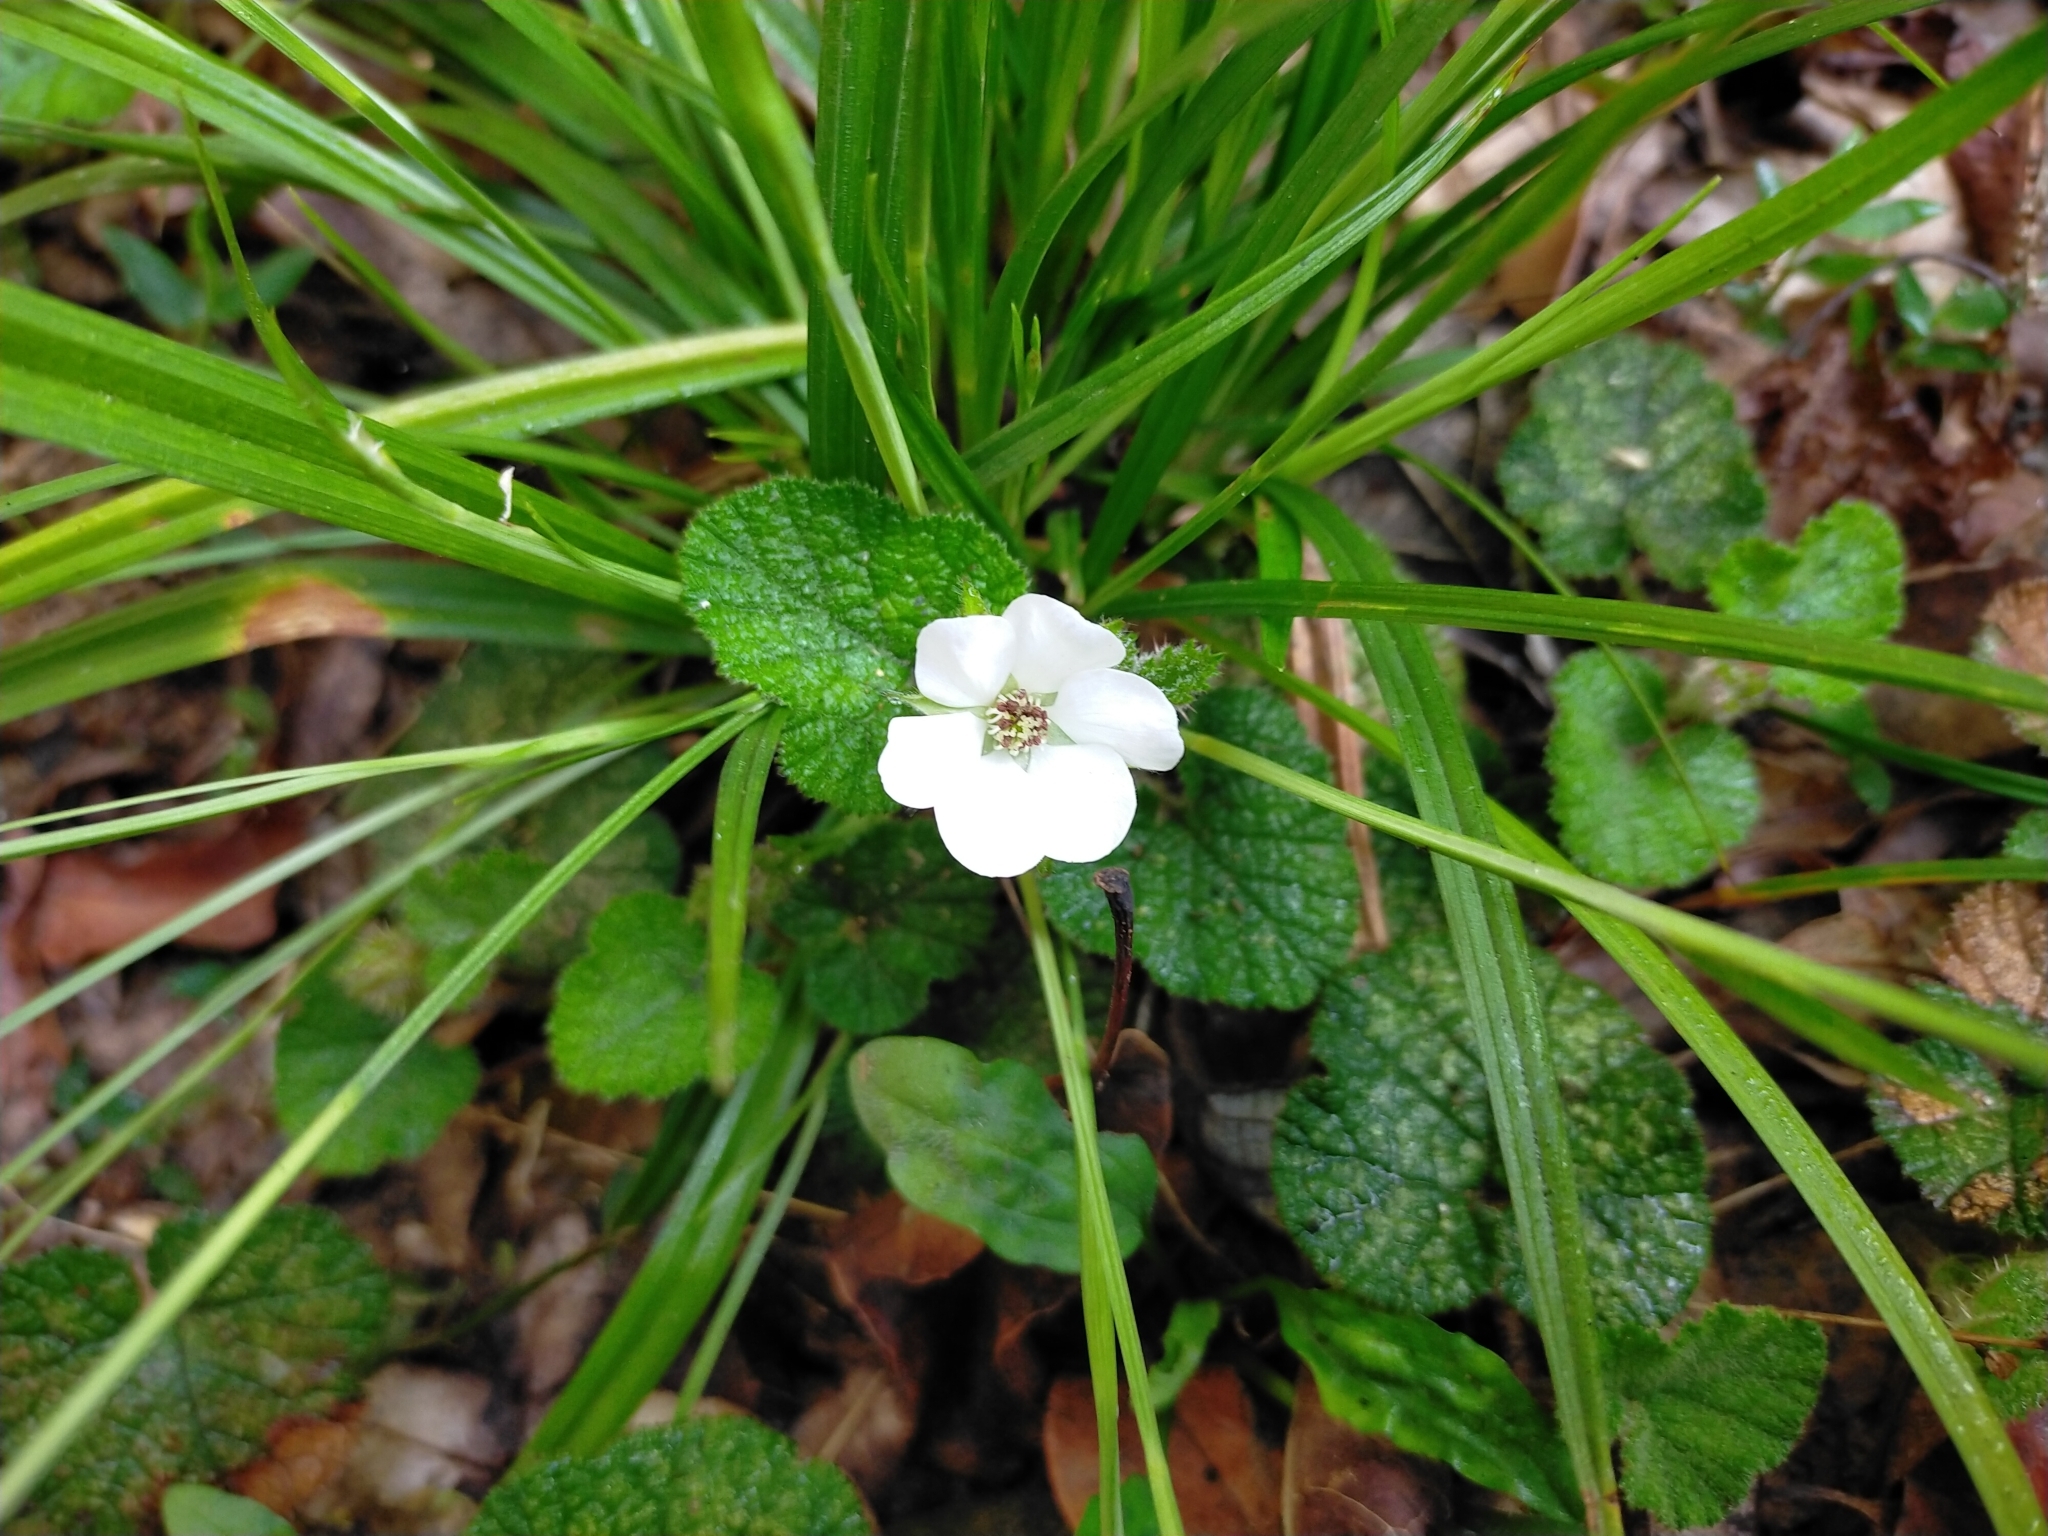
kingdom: Plantae
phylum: Tracheophyta
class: Magnoliopsida
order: Rosales
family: Rosaceae
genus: Rubus
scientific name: Rubus pectinellus
